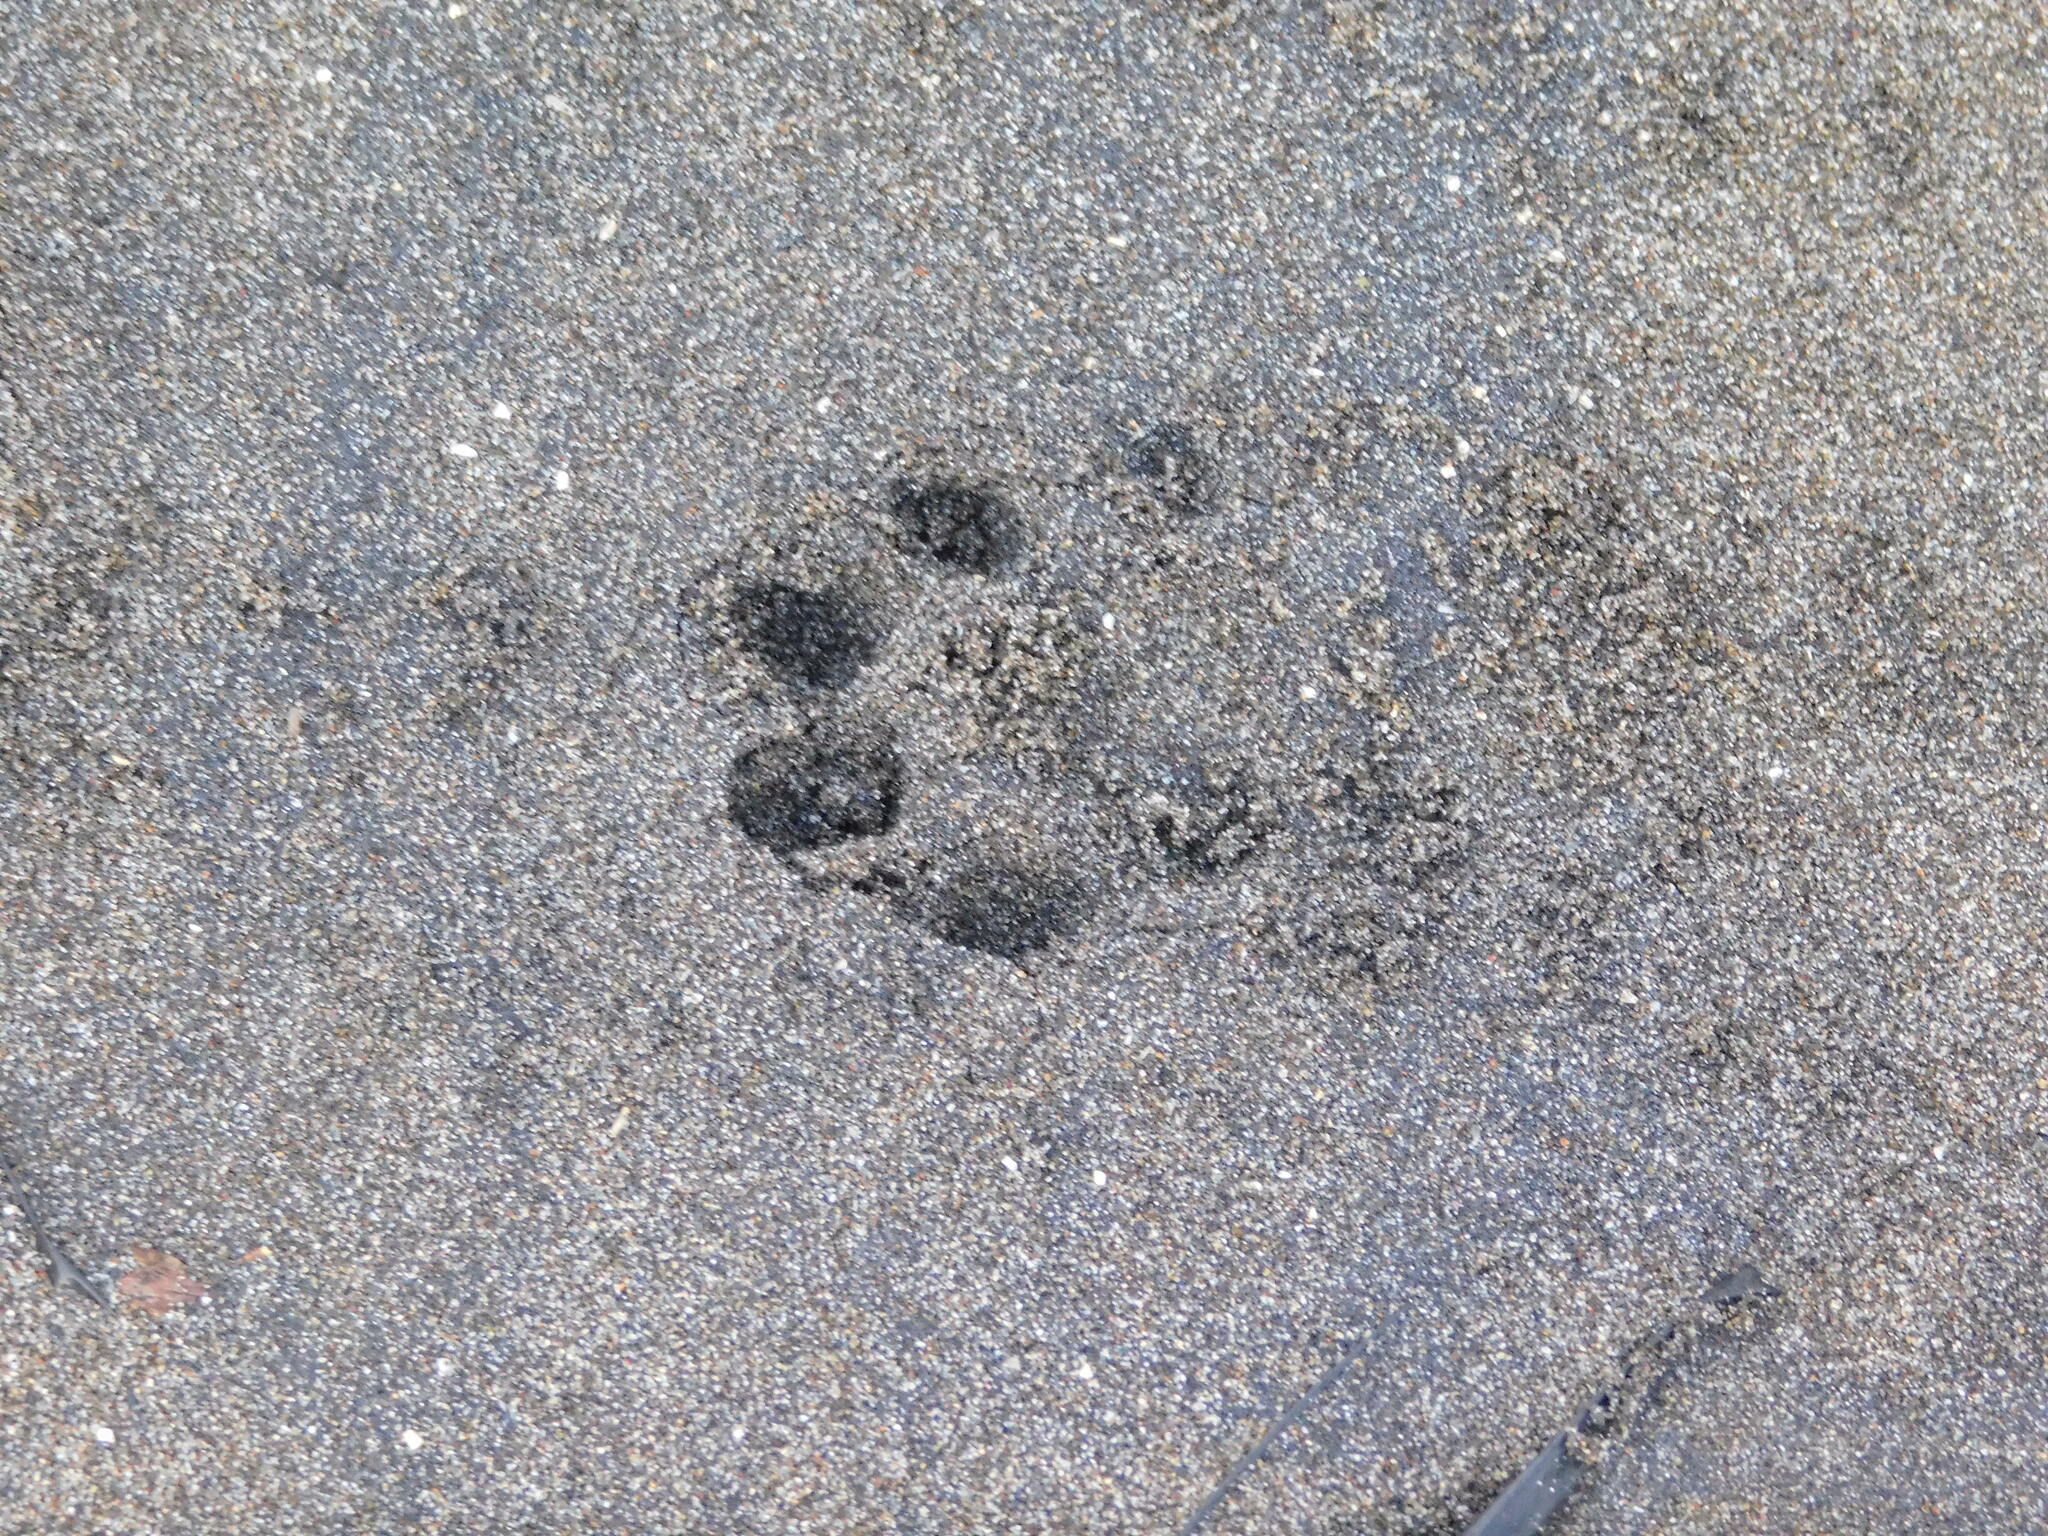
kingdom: Animalia
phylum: Chordata
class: Mammalia
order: Carnivora
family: Mustelidae
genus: Amblonyx
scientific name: Amblonyx cinereus
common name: Oriental small-clawed otter
